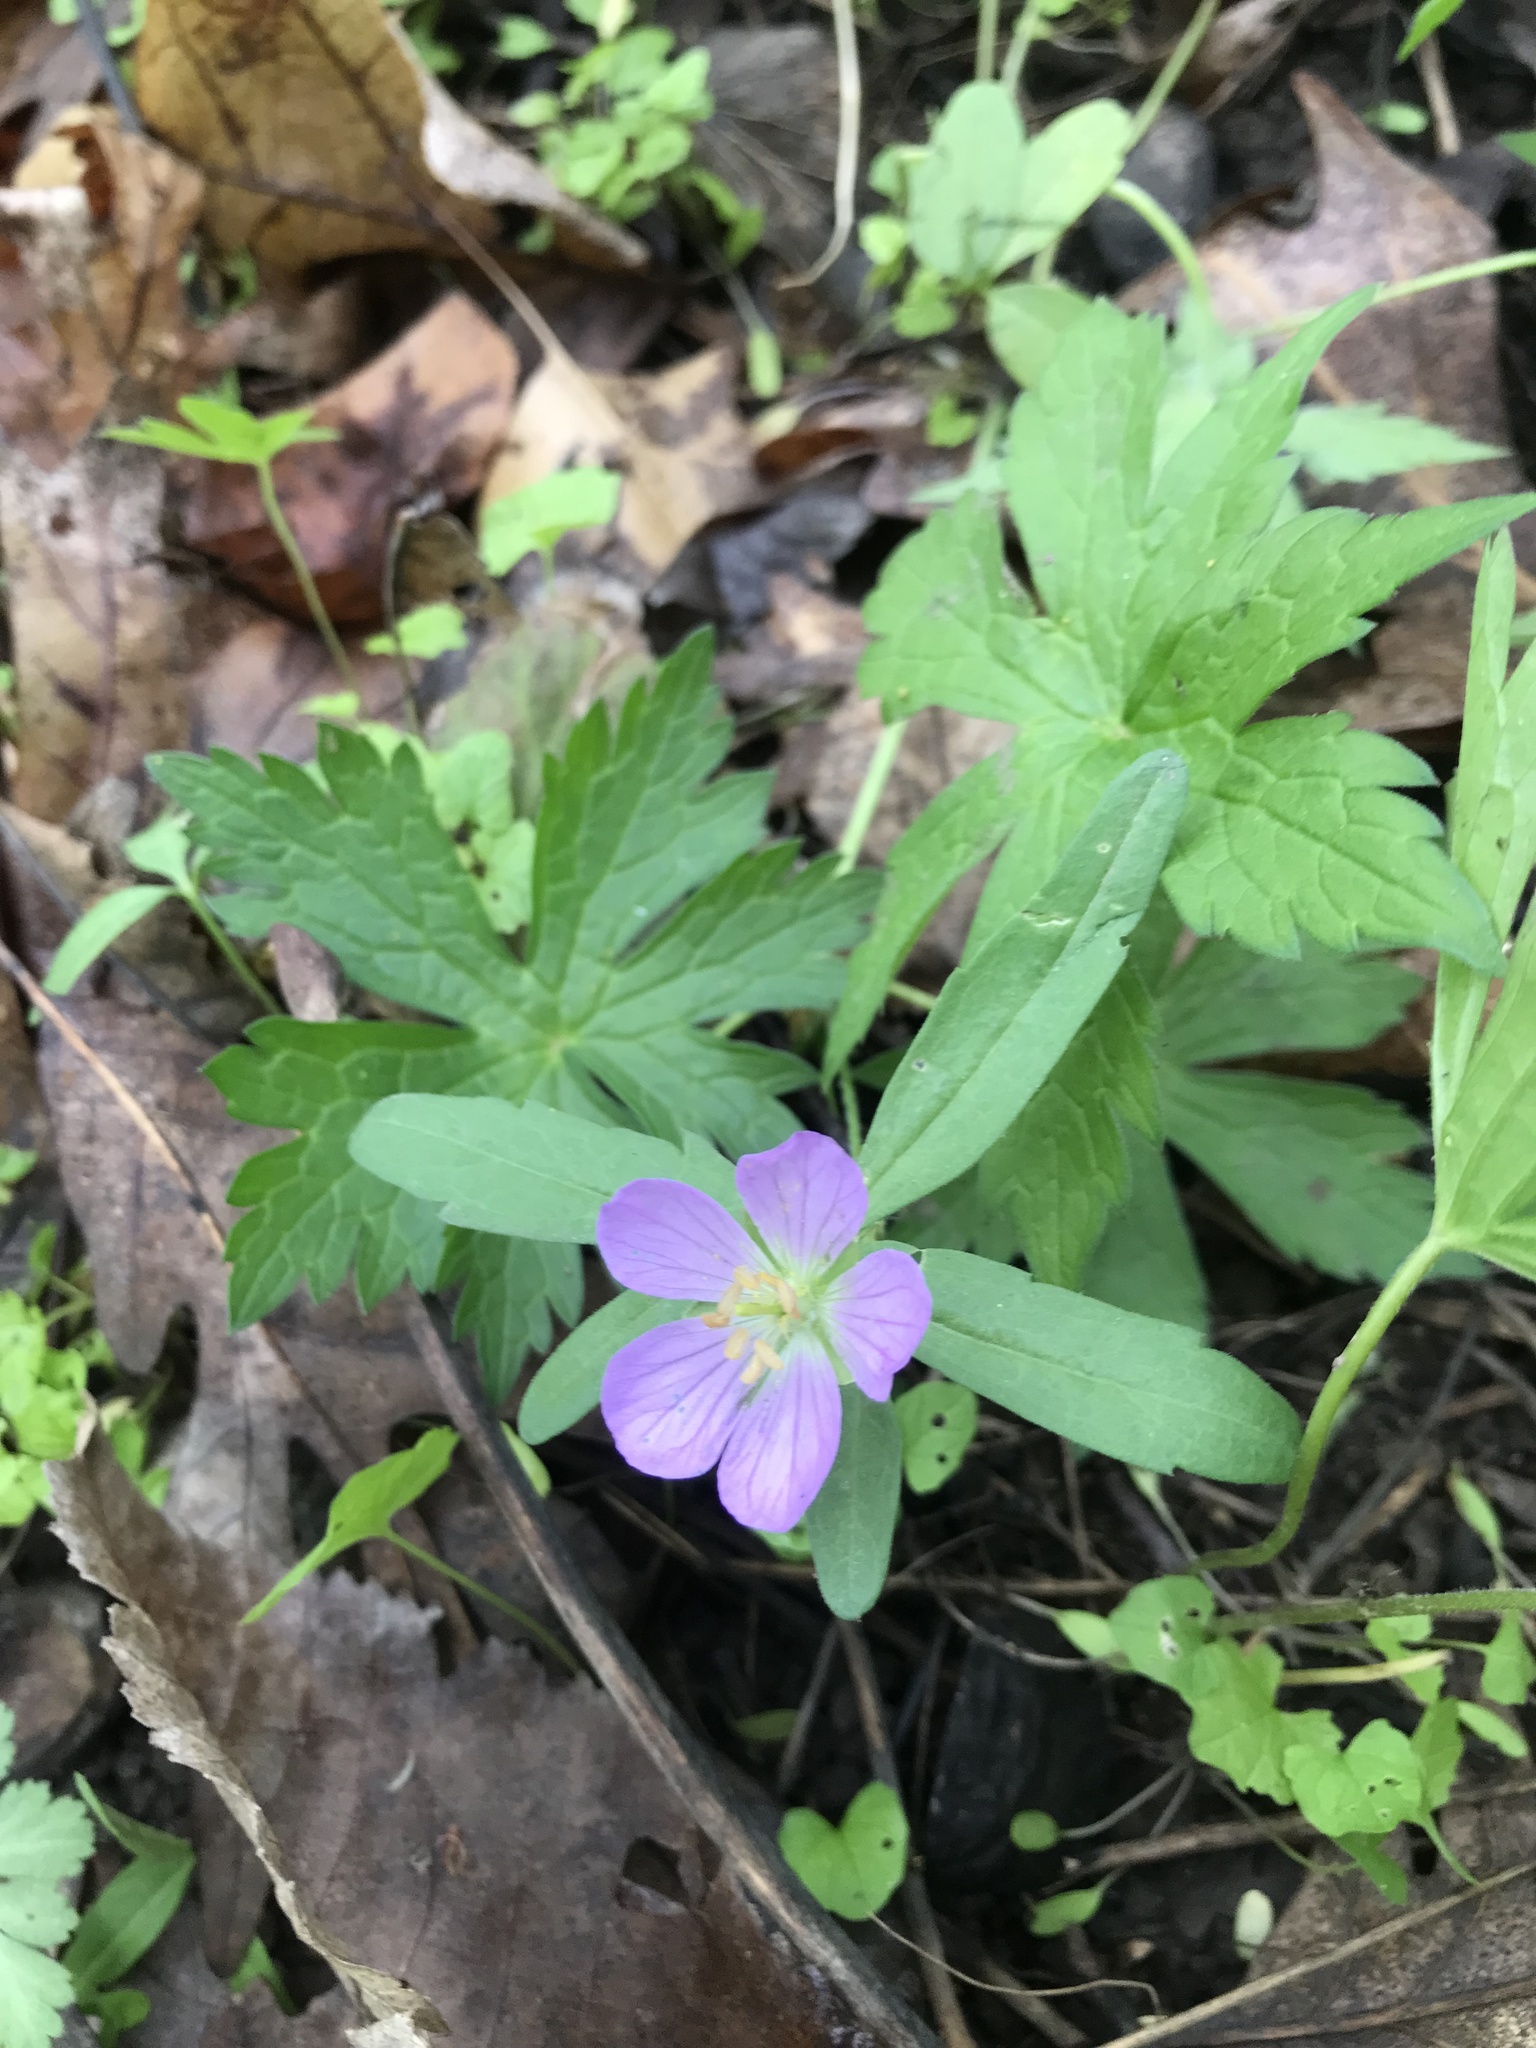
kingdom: Plantae
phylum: Tracheophyta
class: Magnoliopsida
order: Geraniales
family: Geraniaceae
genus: Geranium
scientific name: Geranium maculatum
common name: Spotted geranium
